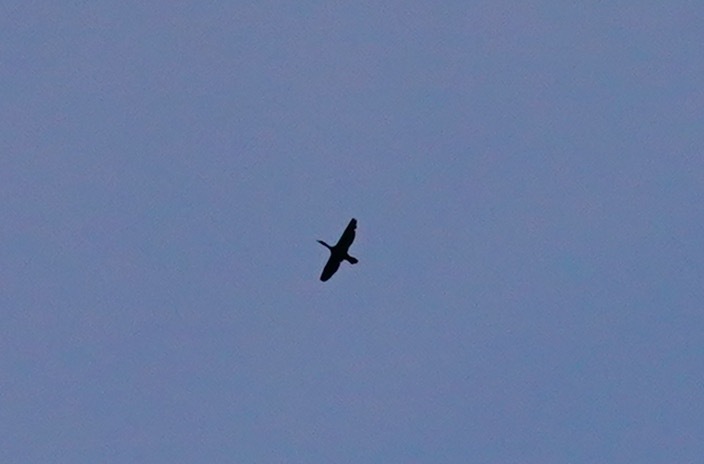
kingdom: Animalia
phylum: Chordata
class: Aves
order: Suliformes
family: Phalacrocoracidae
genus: Phalacrocorax
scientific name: Phalacrocorax auritus
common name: Double-crested cormorant
